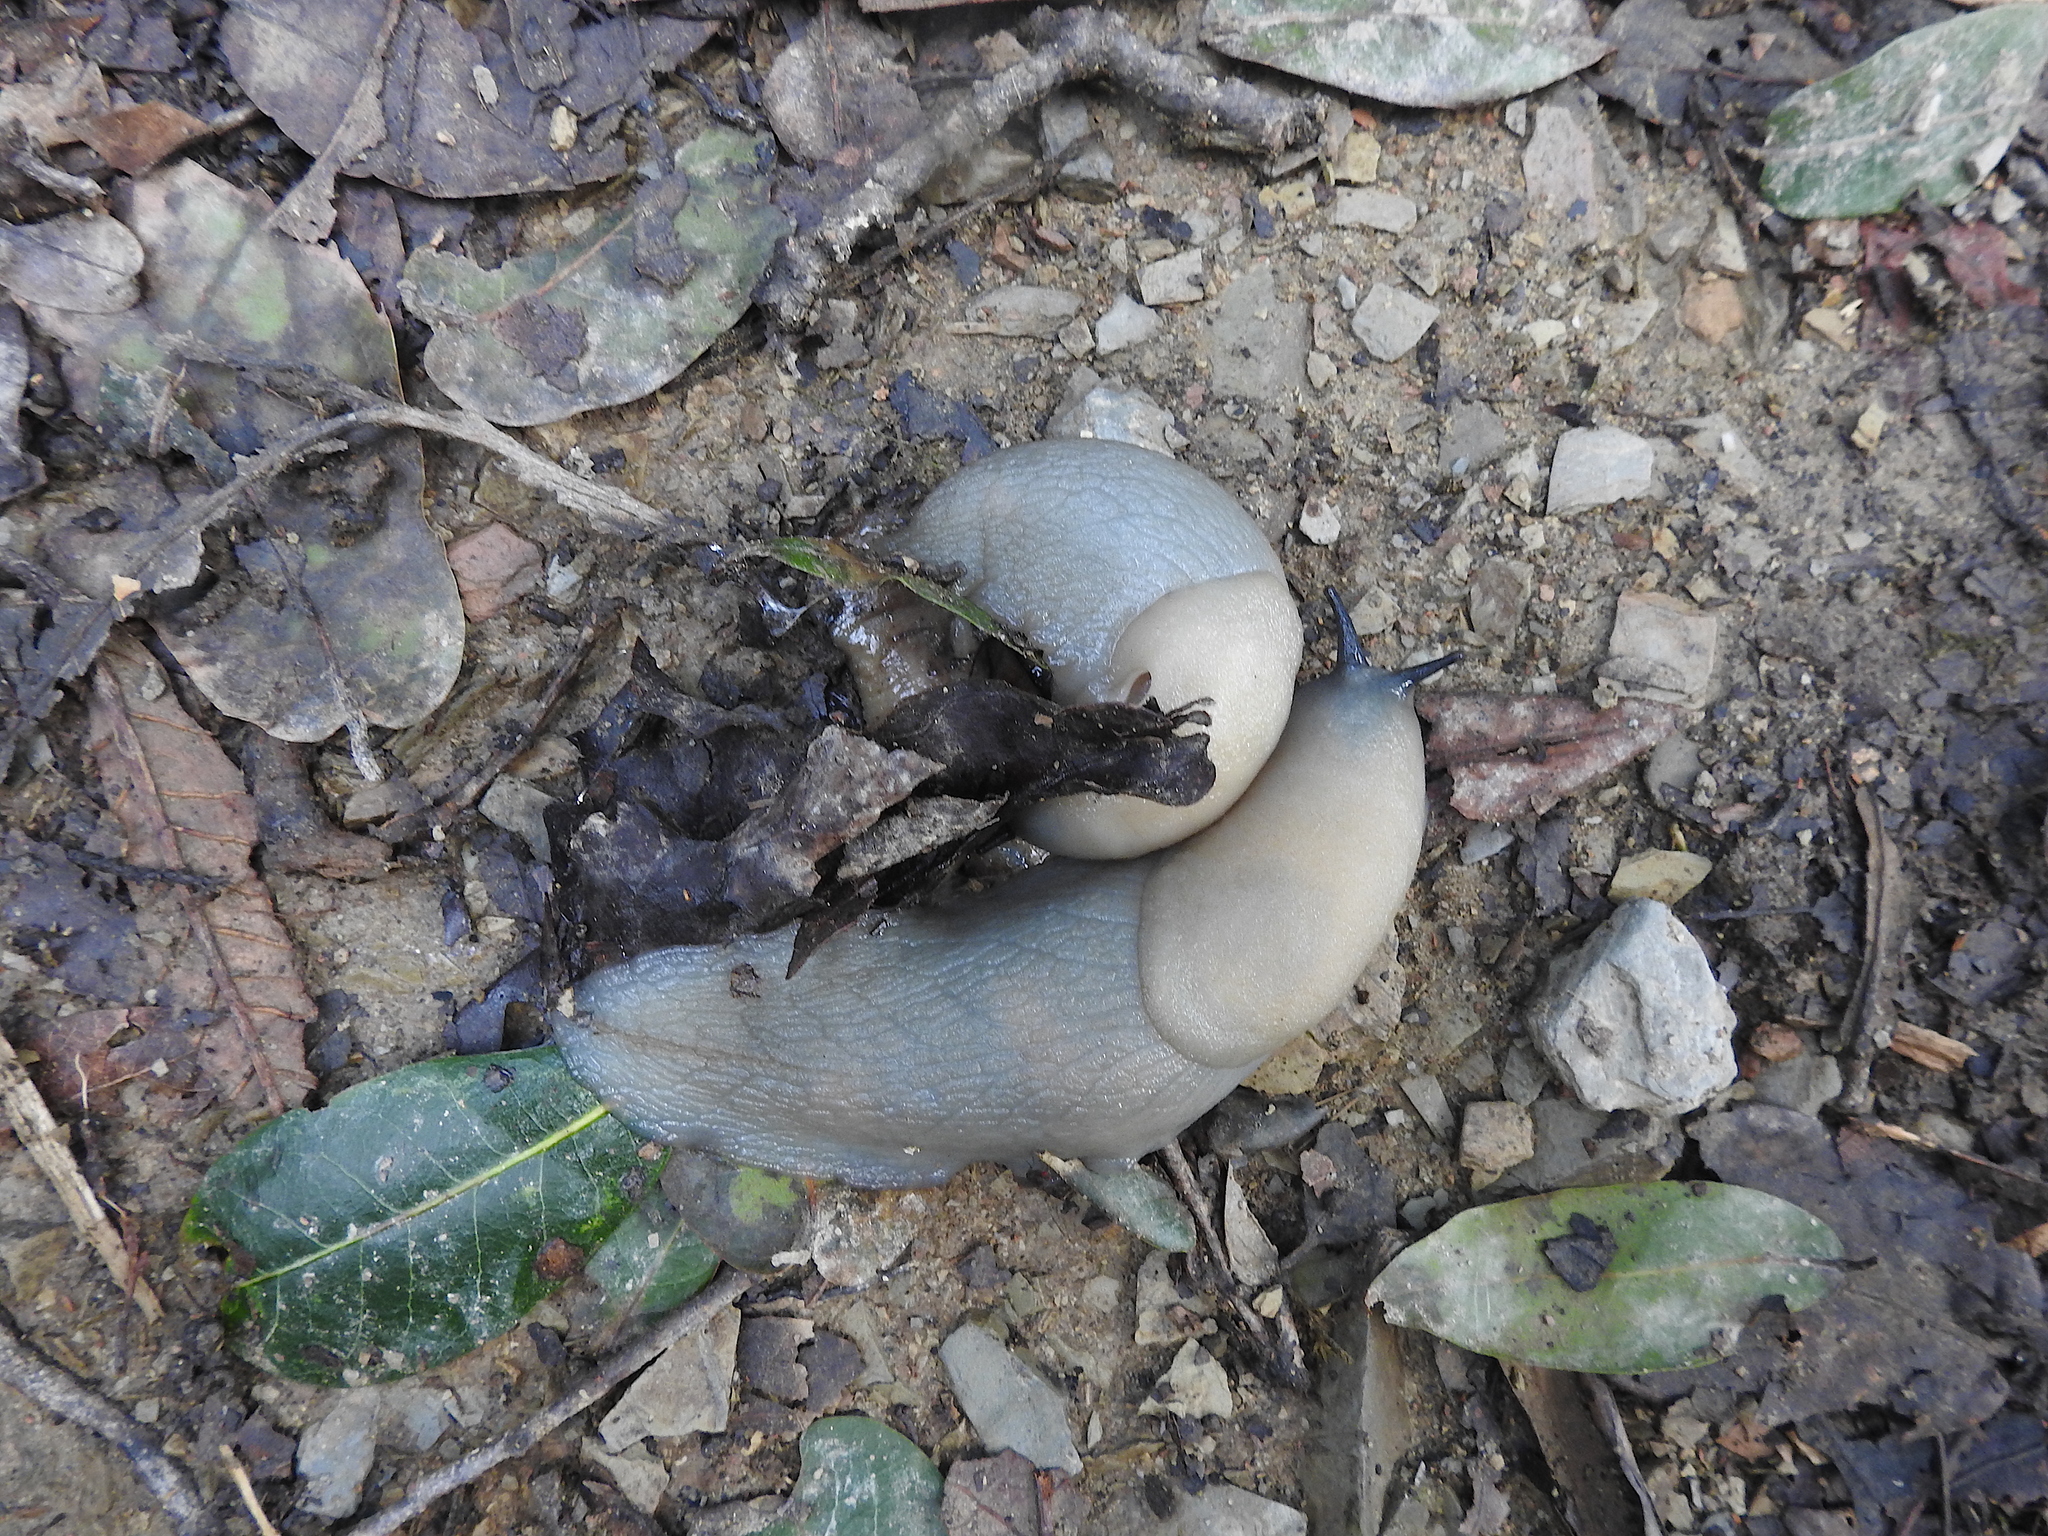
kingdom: Animalia
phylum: Mollusca
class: Gastropoda
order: Stylommatophora
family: Anadenidae
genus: Anadenus
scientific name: Anadenus altivagus
